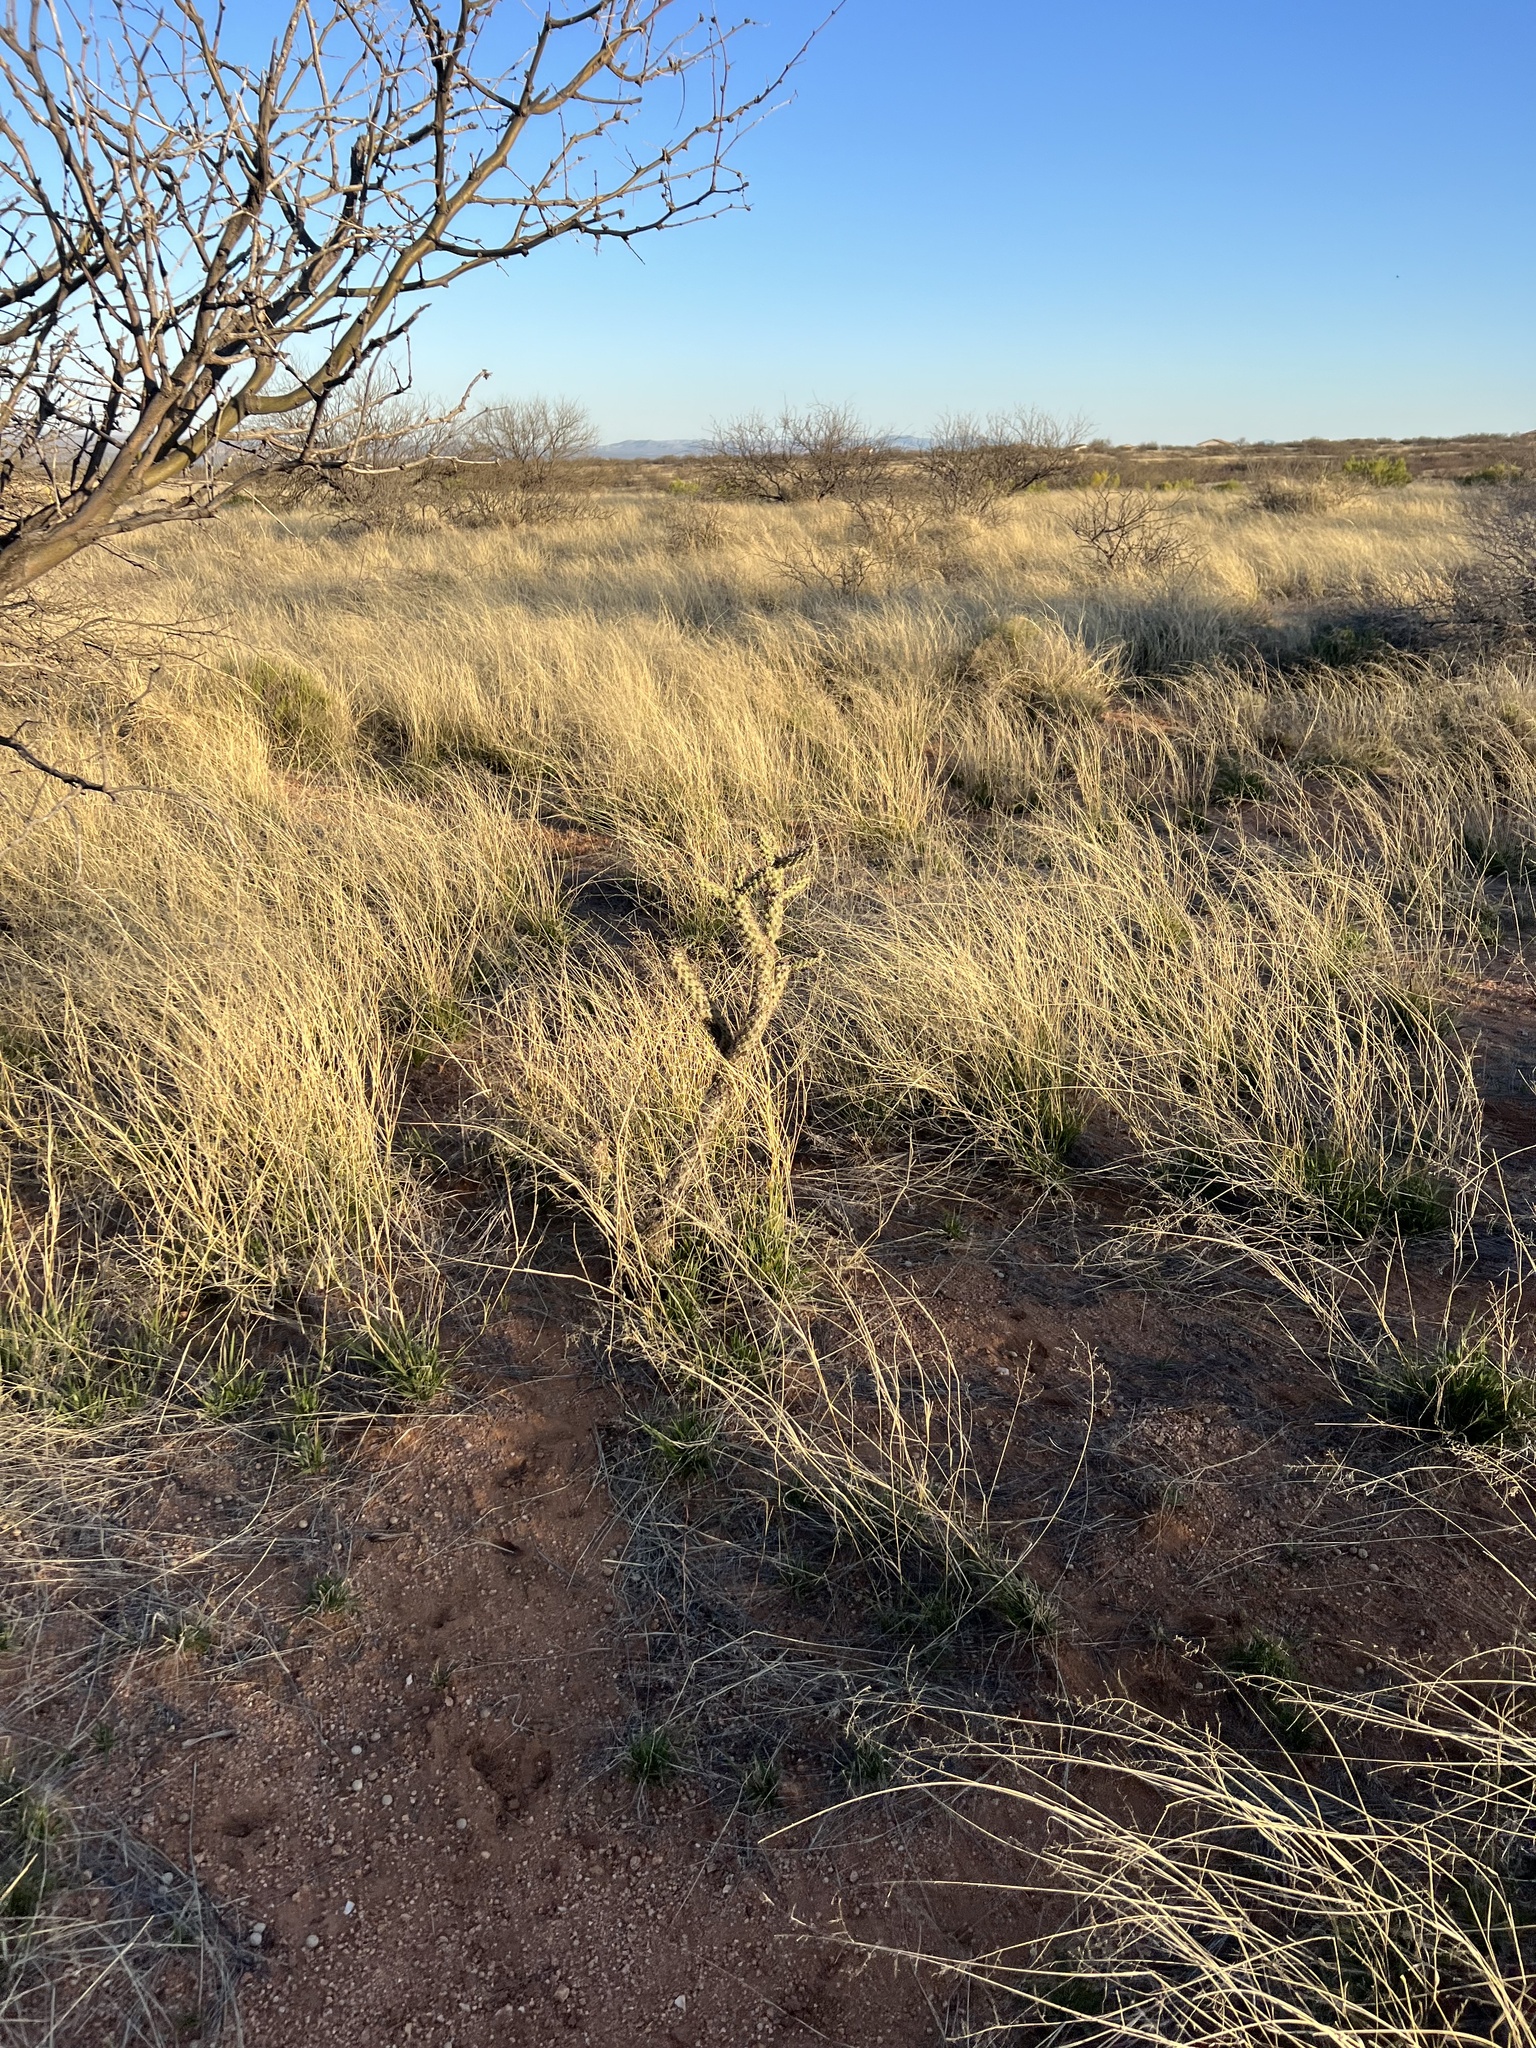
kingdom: Plantae
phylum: Tracheophyta
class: Magnoliopsida
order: Caryophyllales
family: Cactaceae
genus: Cylindropuntia
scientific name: Cylindropuntia imbricata
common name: Candelabrum cactus
